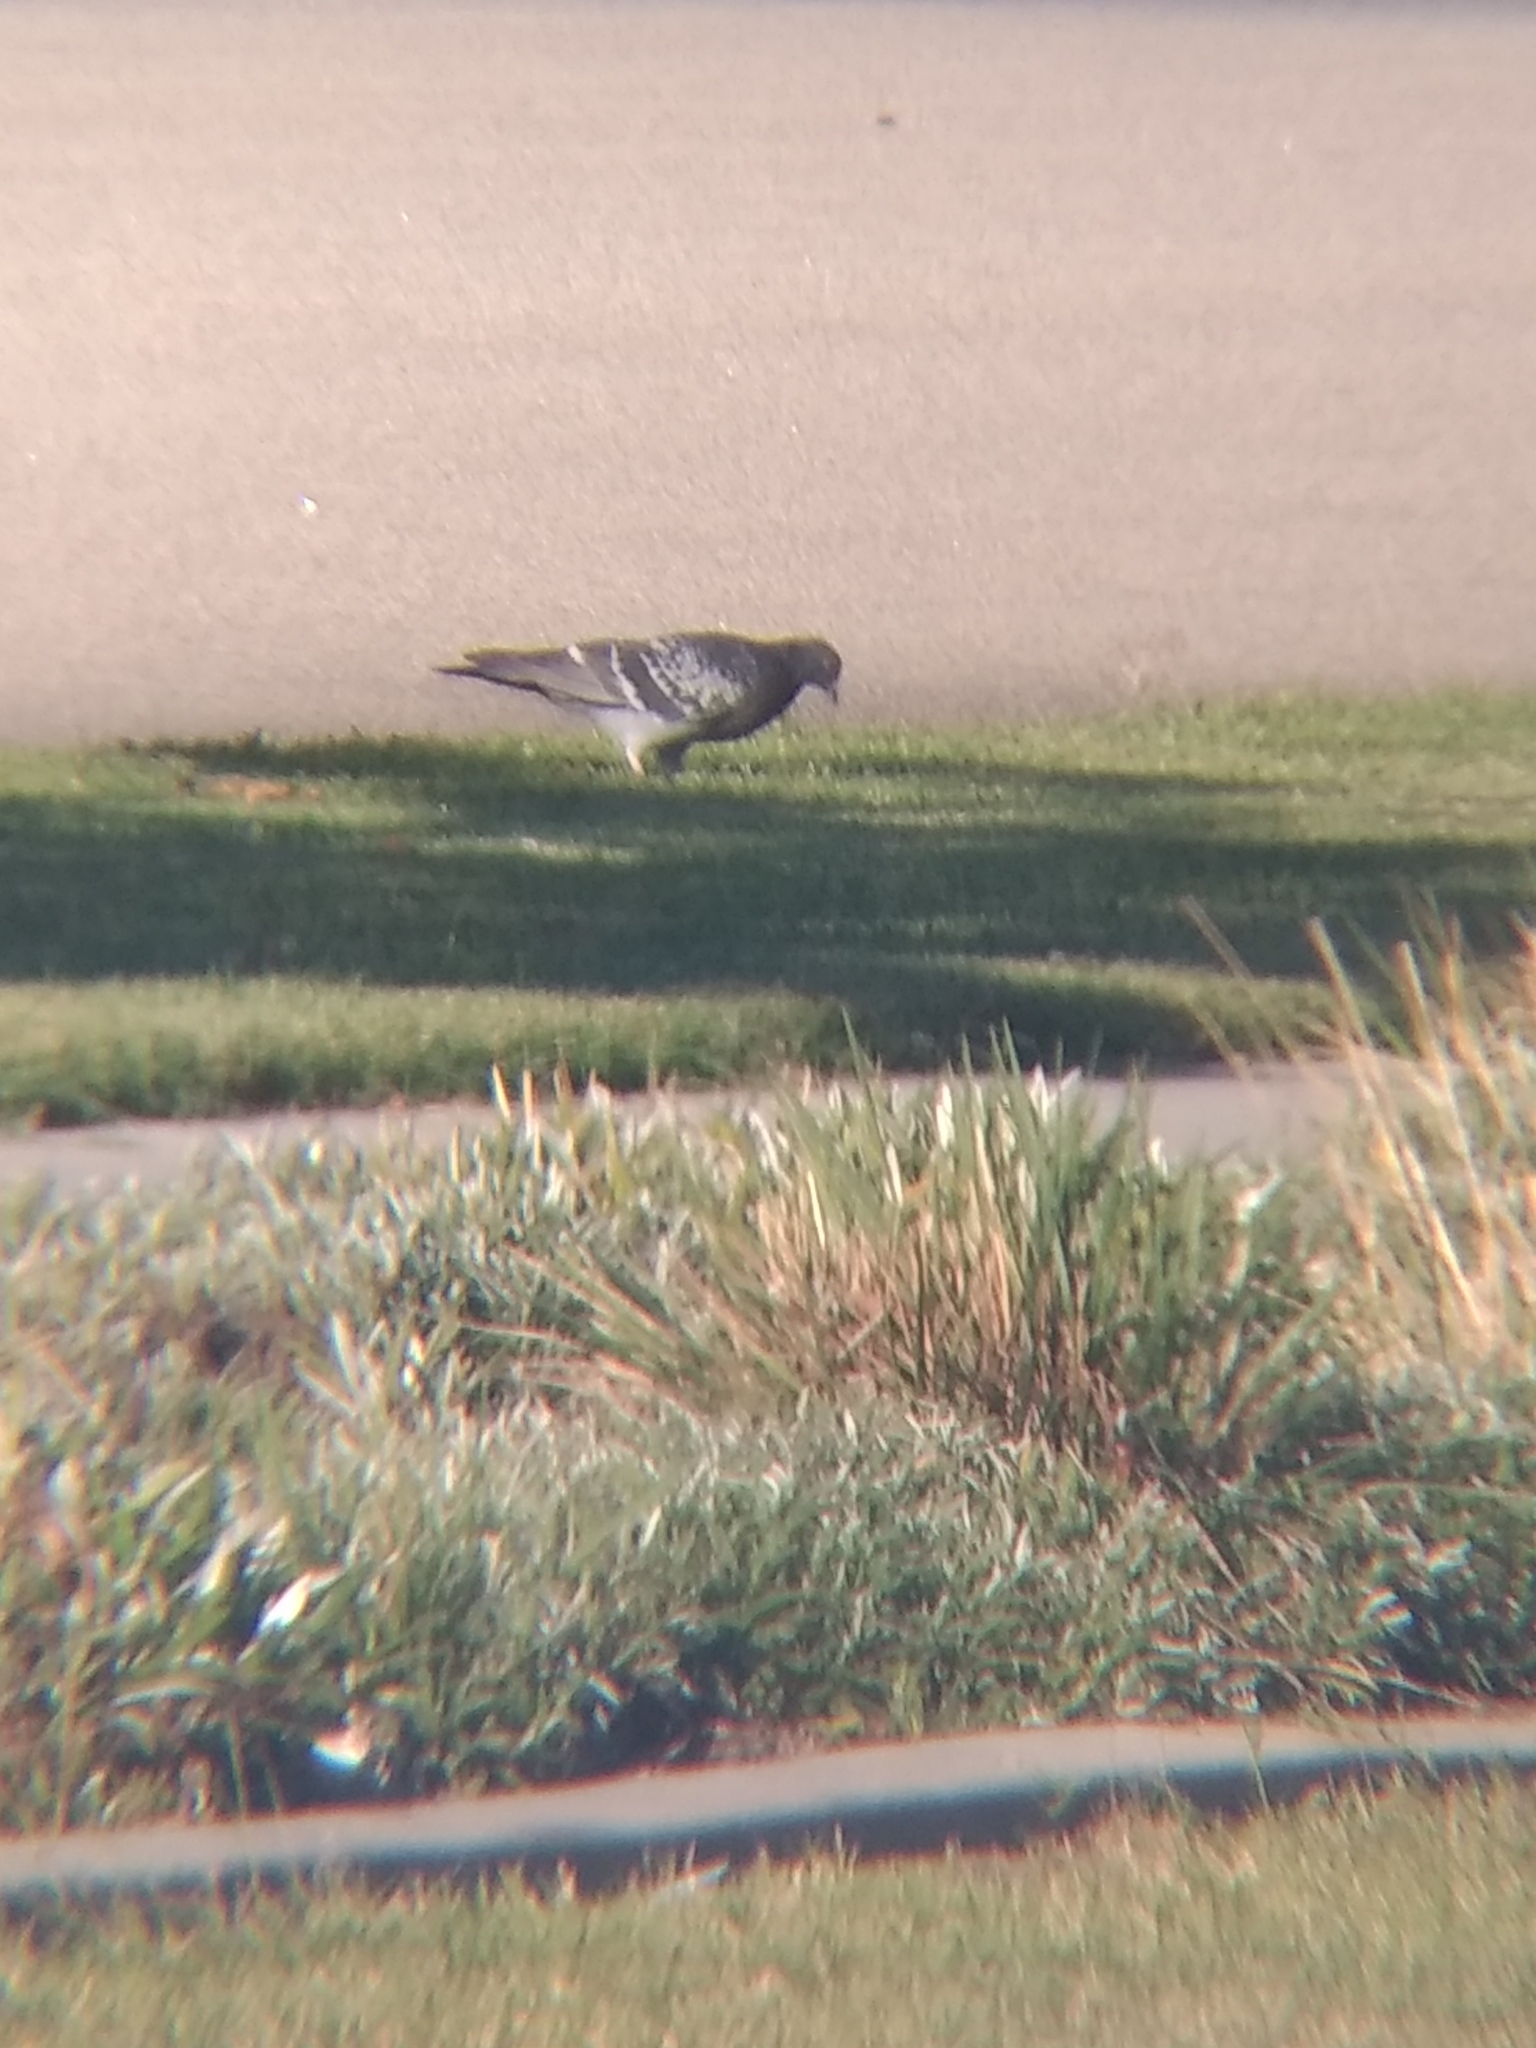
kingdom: Animalia
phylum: Chordata
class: Aves
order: Columbiformes
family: Columbidae
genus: Columba
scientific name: Columba livia
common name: Rock pigeon
